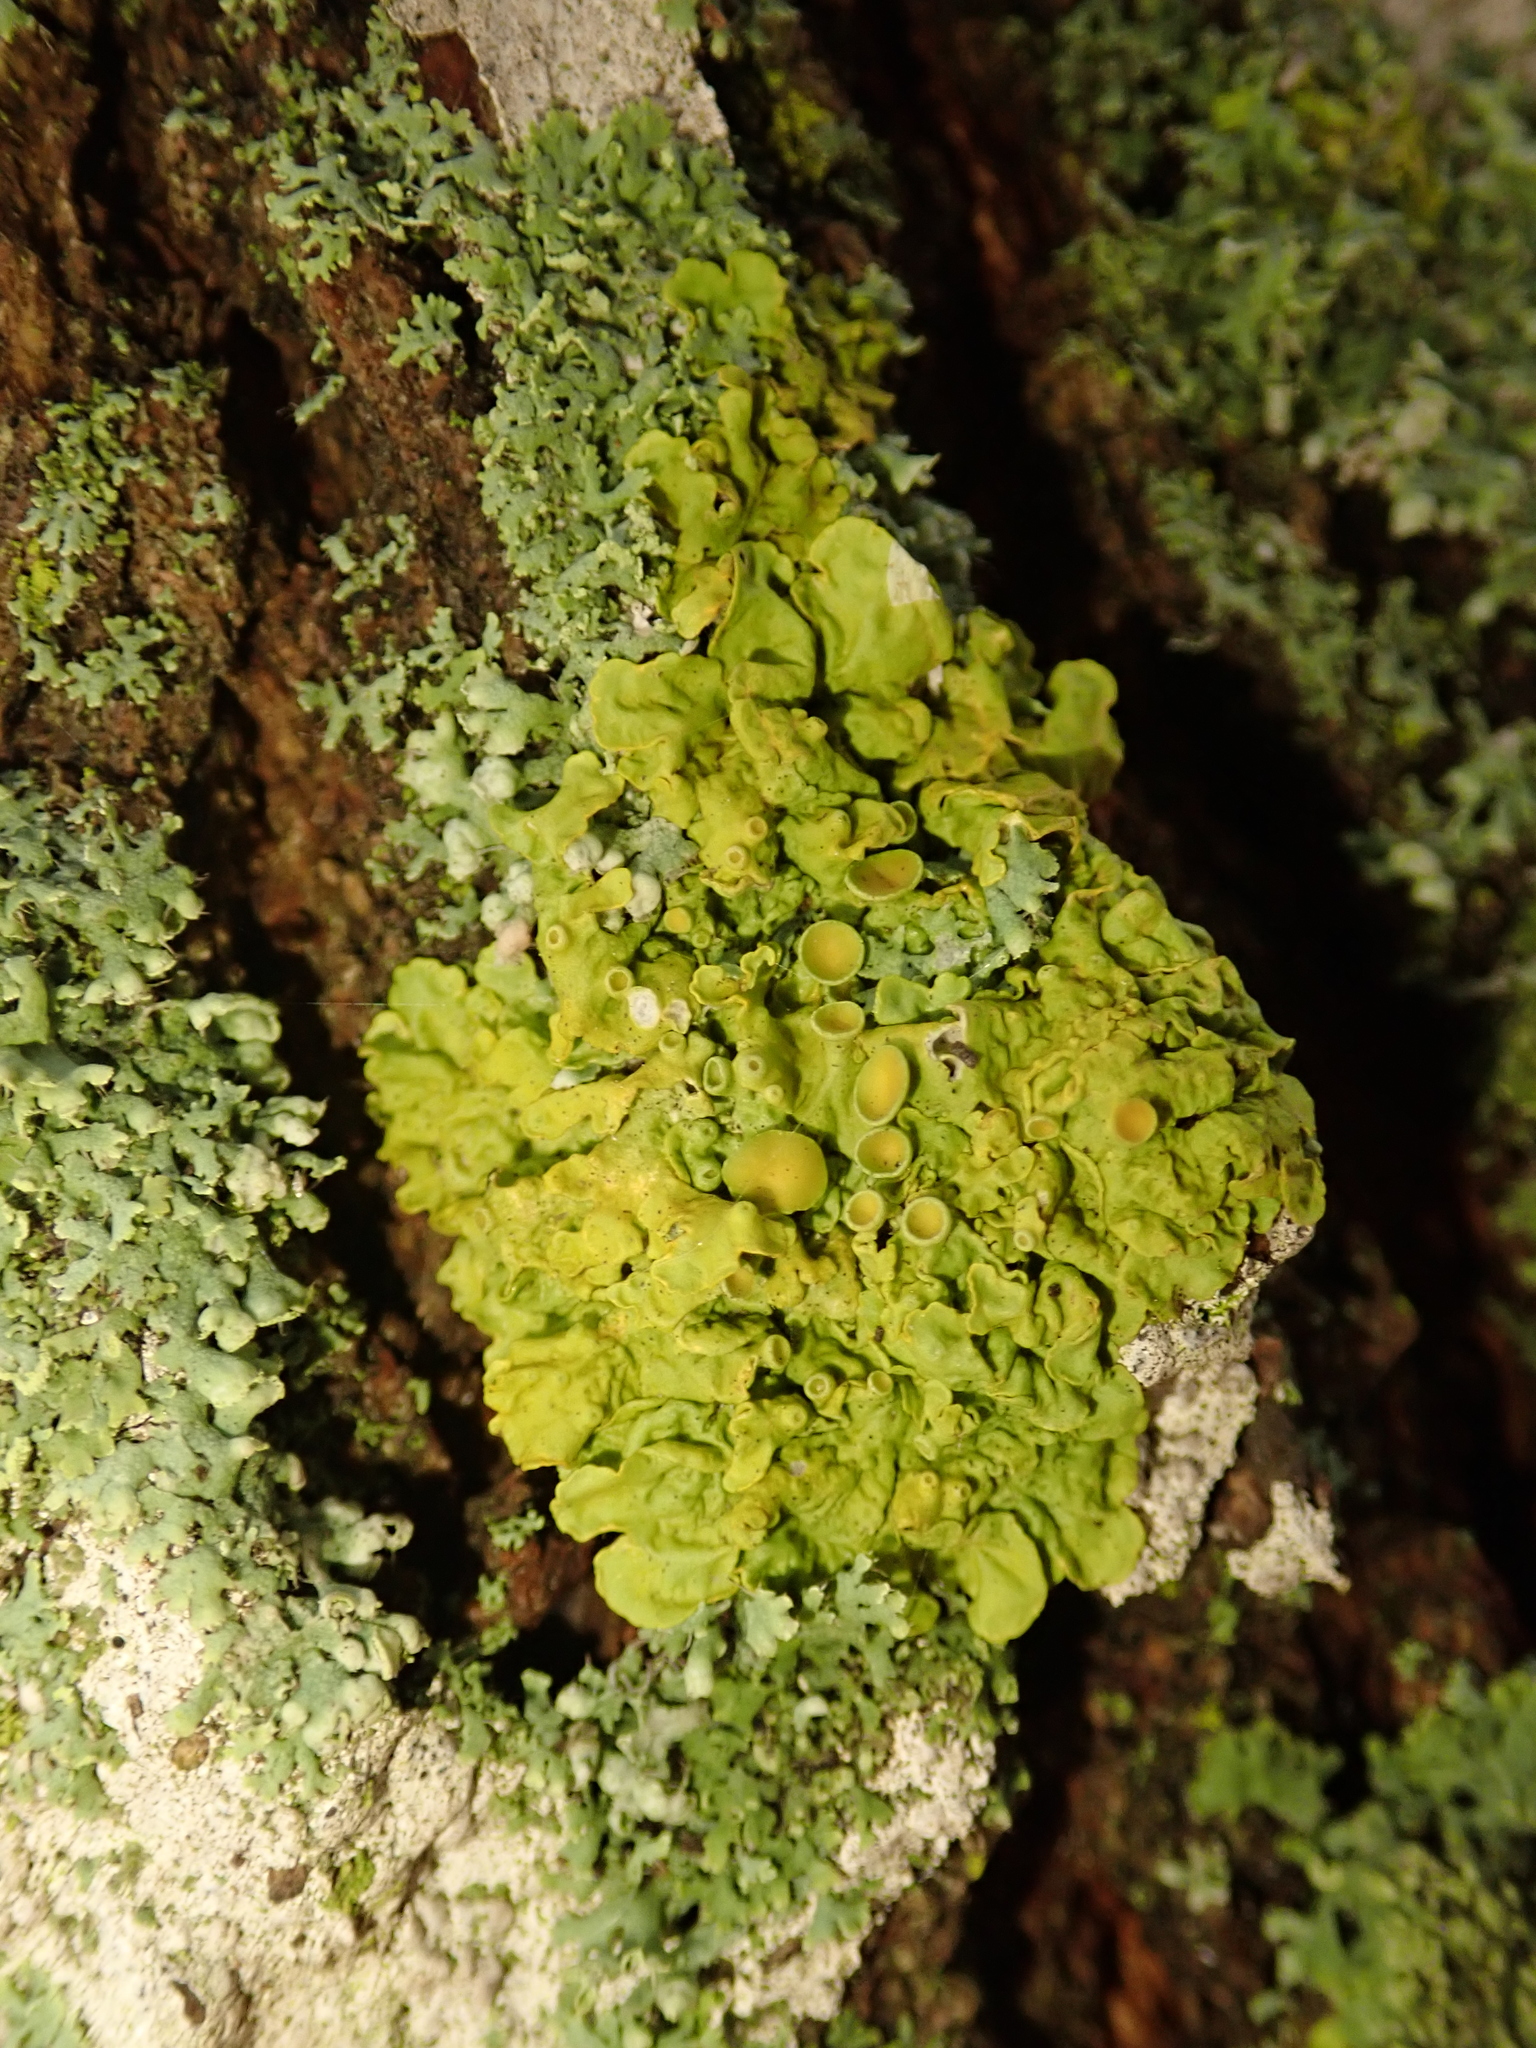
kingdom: Fungi
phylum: Ascomycota
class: Lecanoromycetes
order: Teloschistales
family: Teloschistaceae
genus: Xanthoria
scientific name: Xanthoria parietina
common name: Common orange lichen
